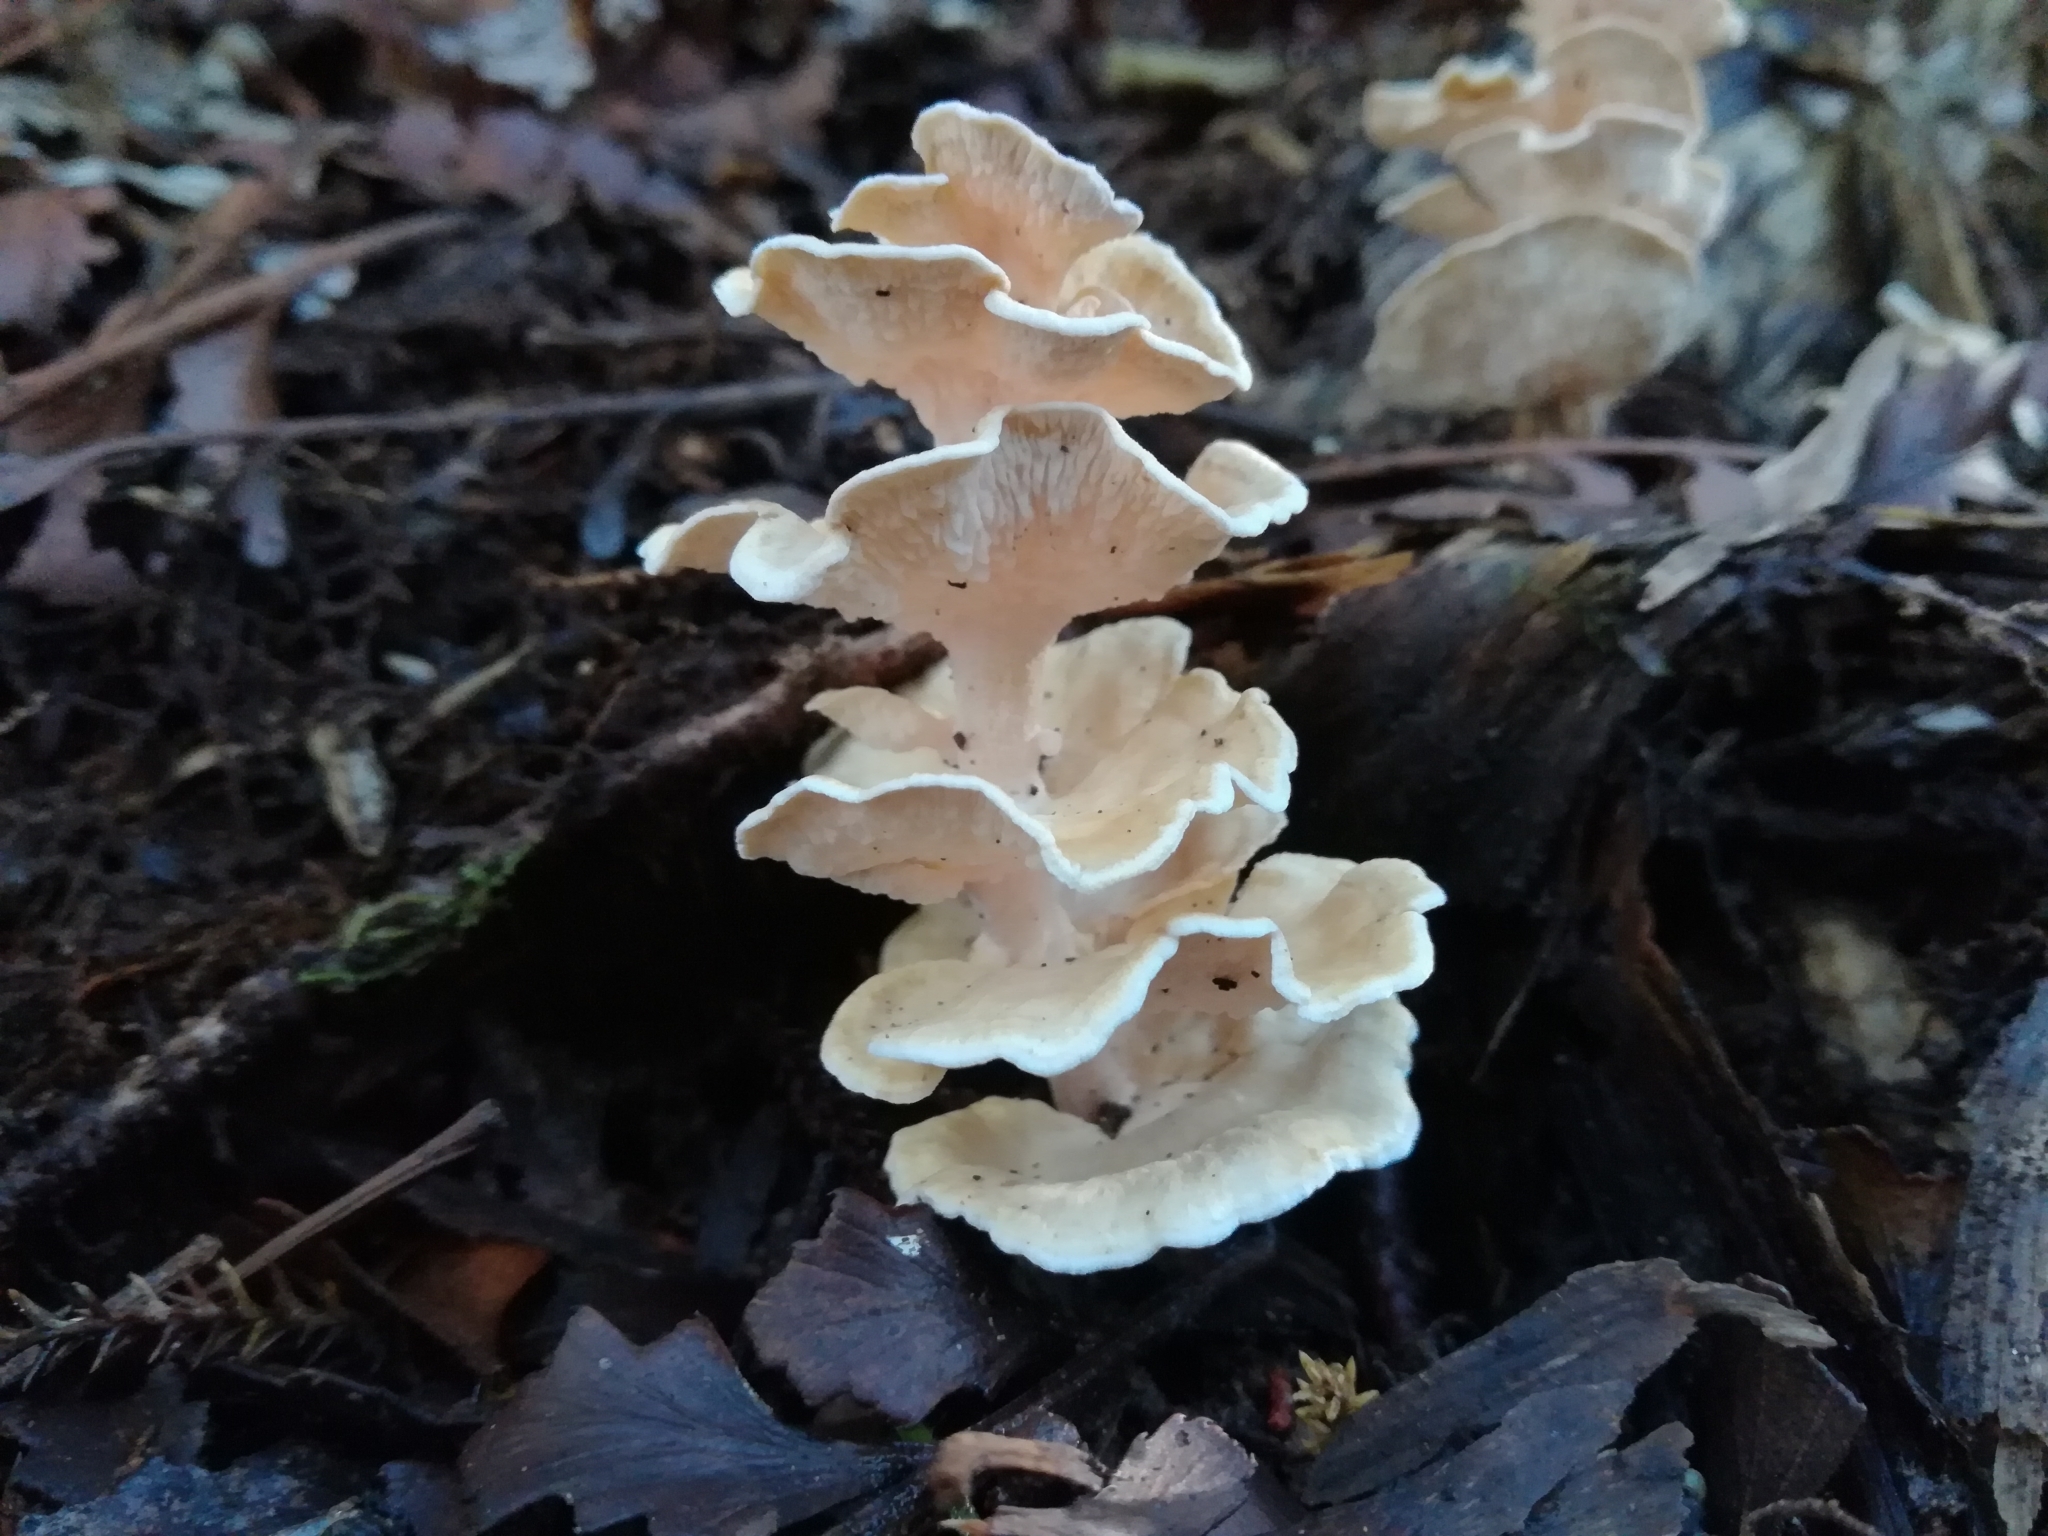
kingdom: Fungi
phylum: Basidiomycota
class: Agaricomycetes
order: Amylocorticiales
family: Amylocorticiaceae
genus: Podoserpula
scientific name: Podoserpula pusio
